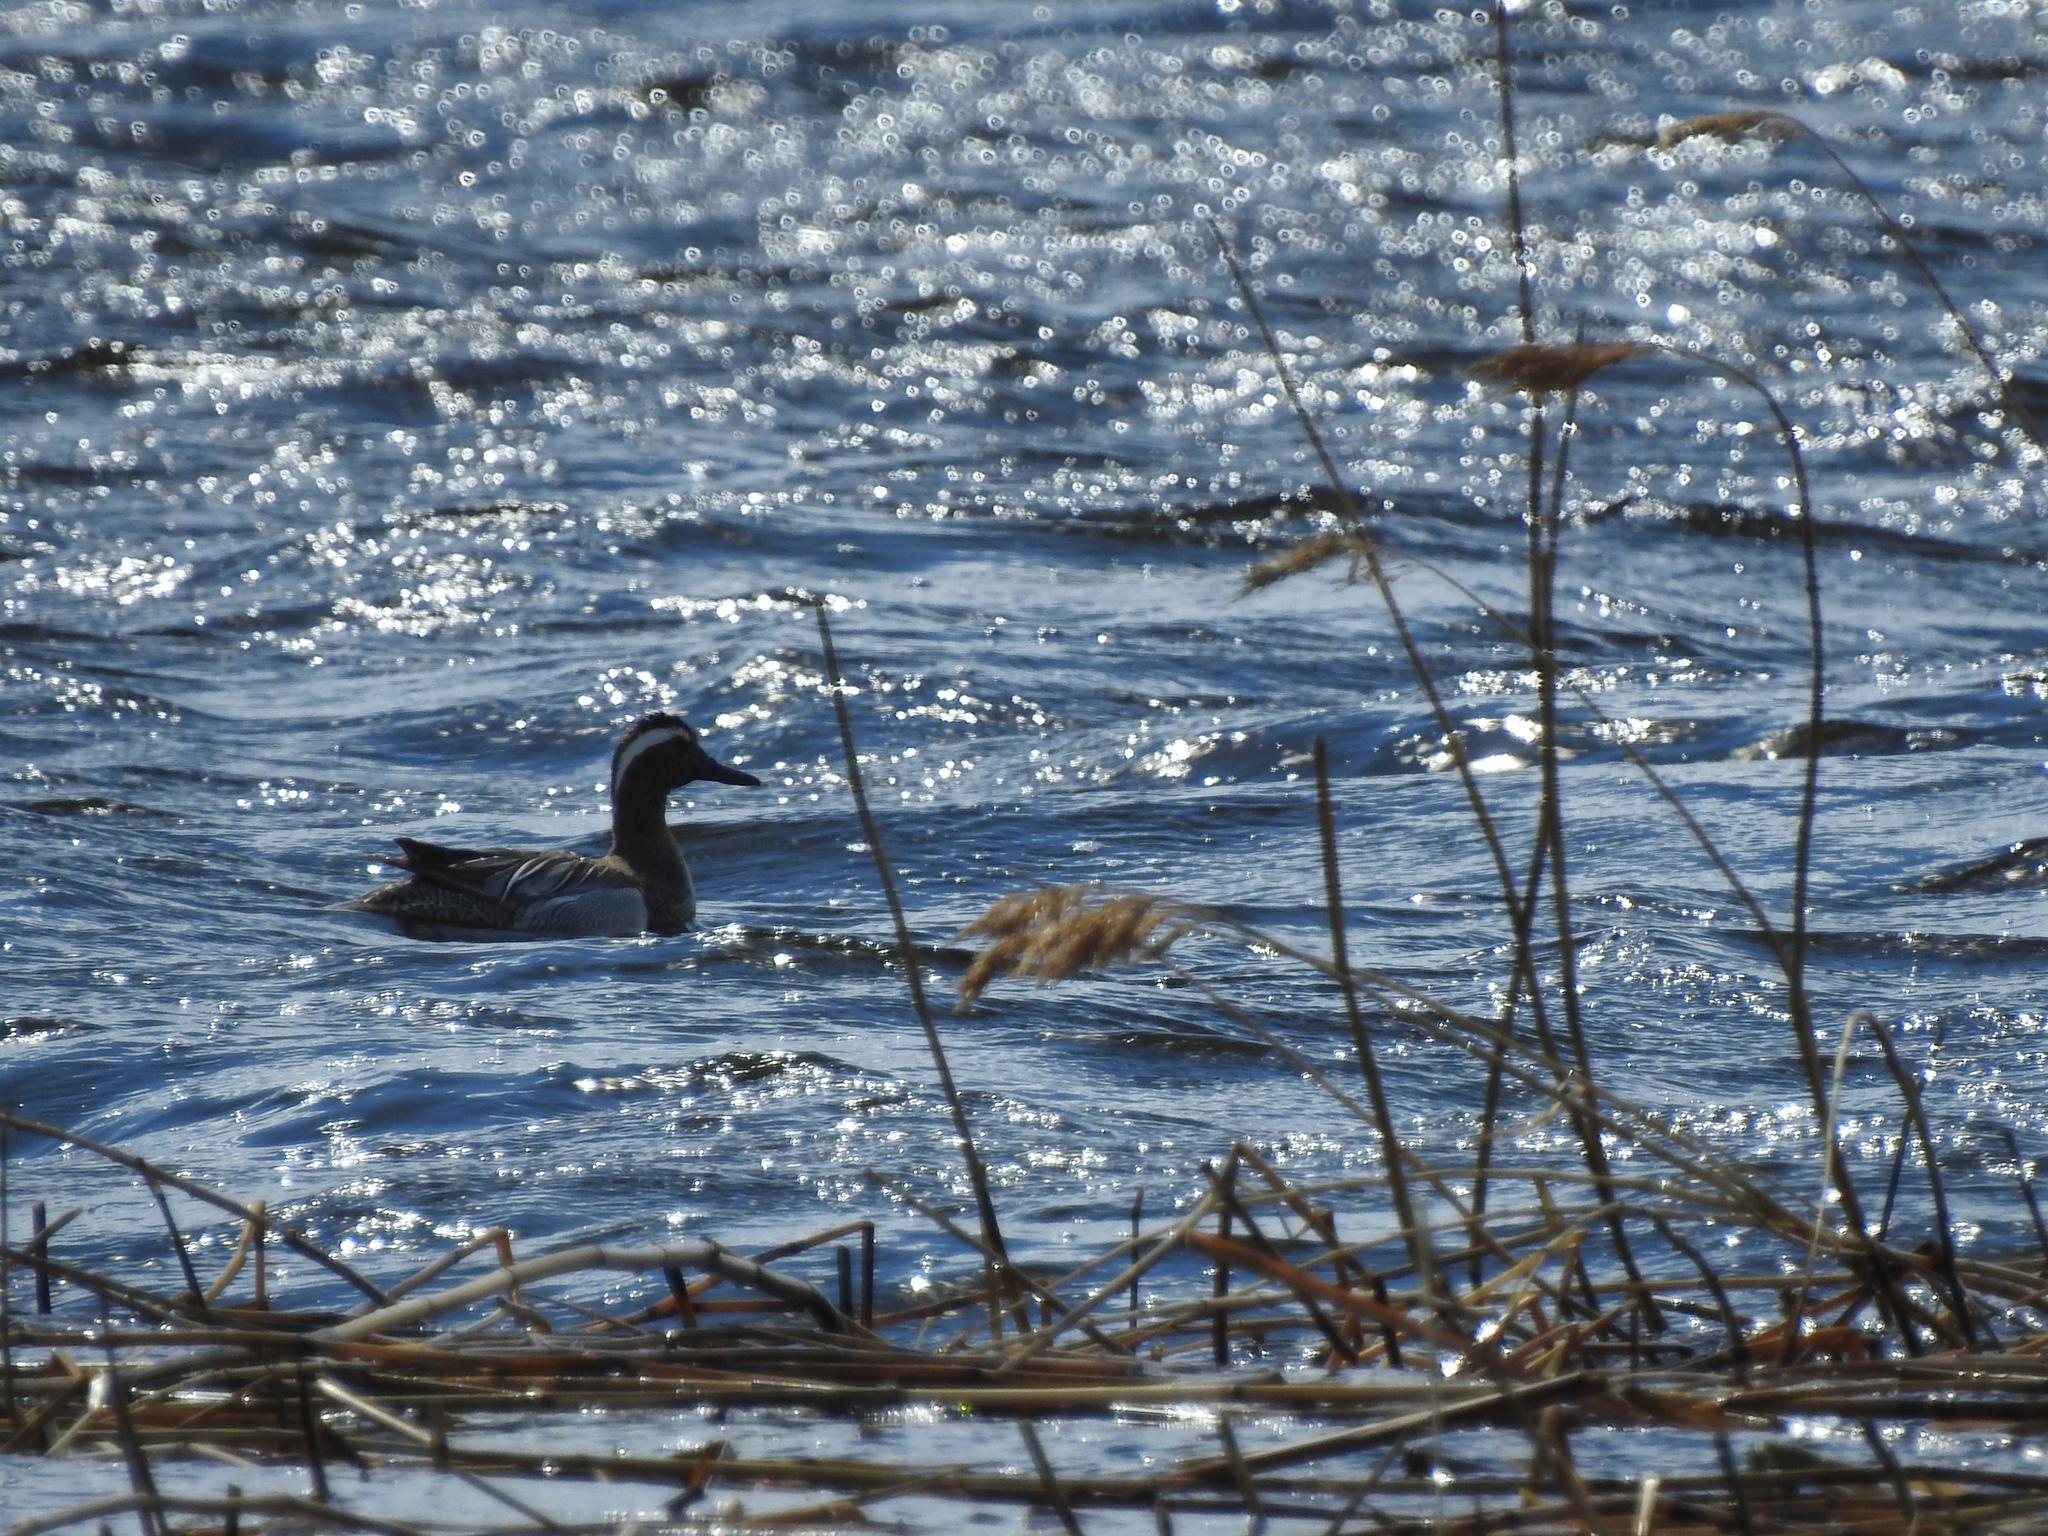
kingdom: Animalia
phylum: Chordata
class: Aves
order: Anseriformes
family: Anatidae
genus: Spatula
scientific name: Spatula querquedula
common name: Garganey
